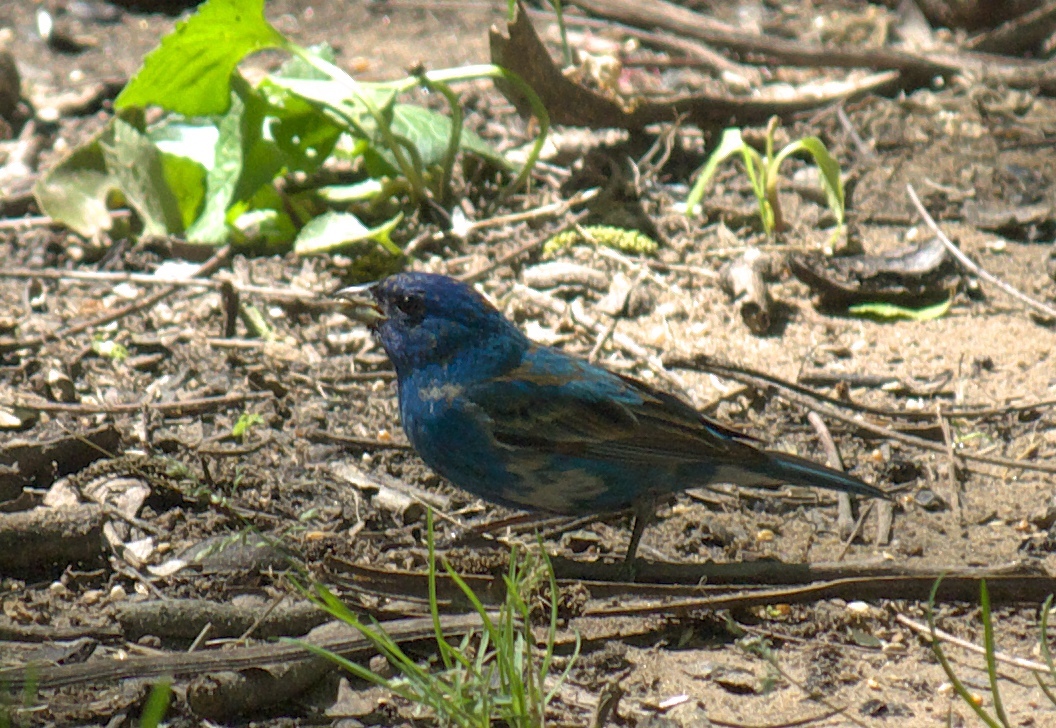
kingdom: Animalia
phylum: Chordata
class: Aves
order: Passeriformes
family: Cardinalidae
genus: Passerina
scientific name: Passerina cyanea
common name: Indigo bunting
